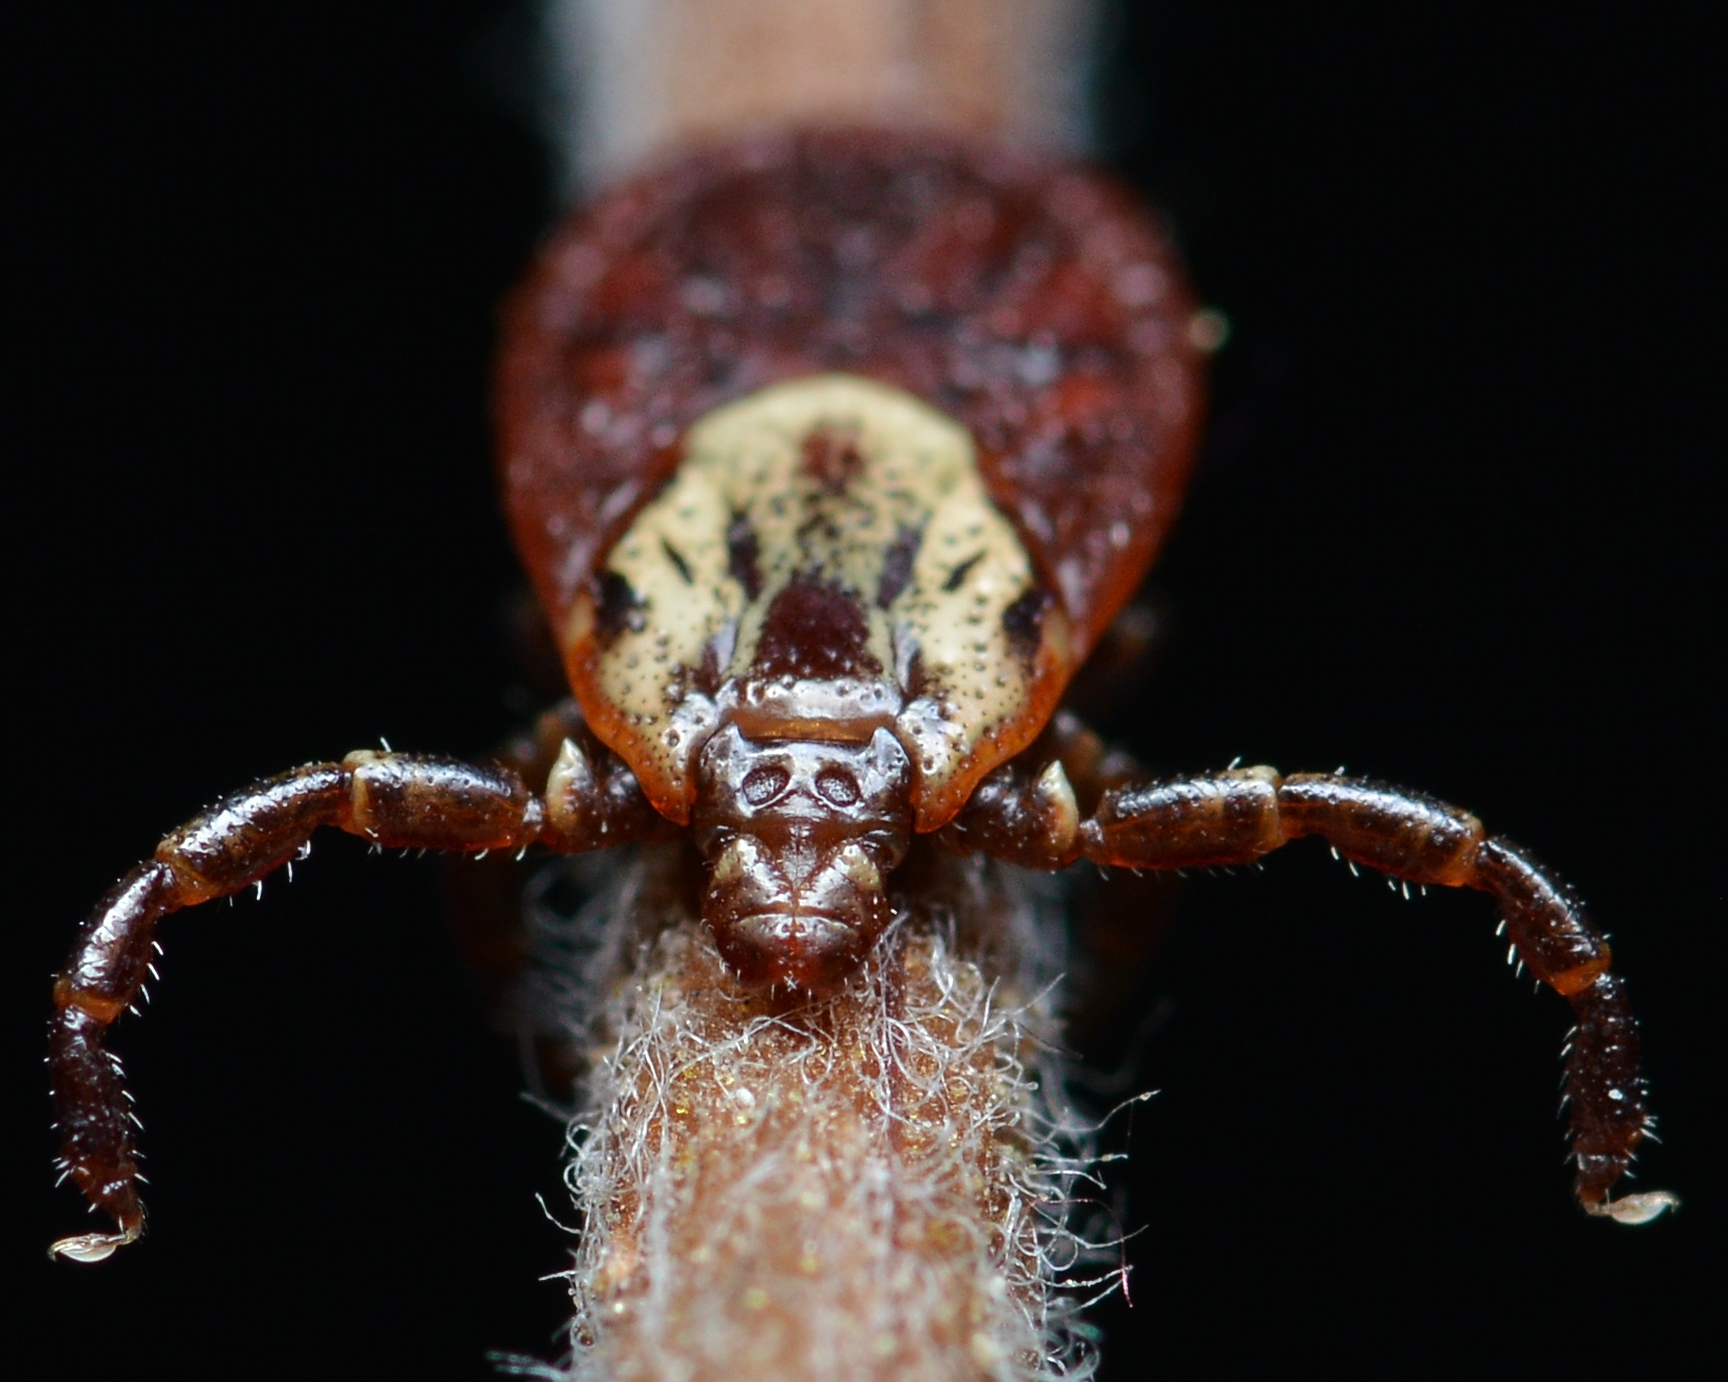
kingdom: Animalia
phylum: Arthropoda
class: Arachnida
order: Ixodida
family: Ixodidae
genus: Dermacentor
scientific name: Dermacentor variabilis
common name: American dog tick
